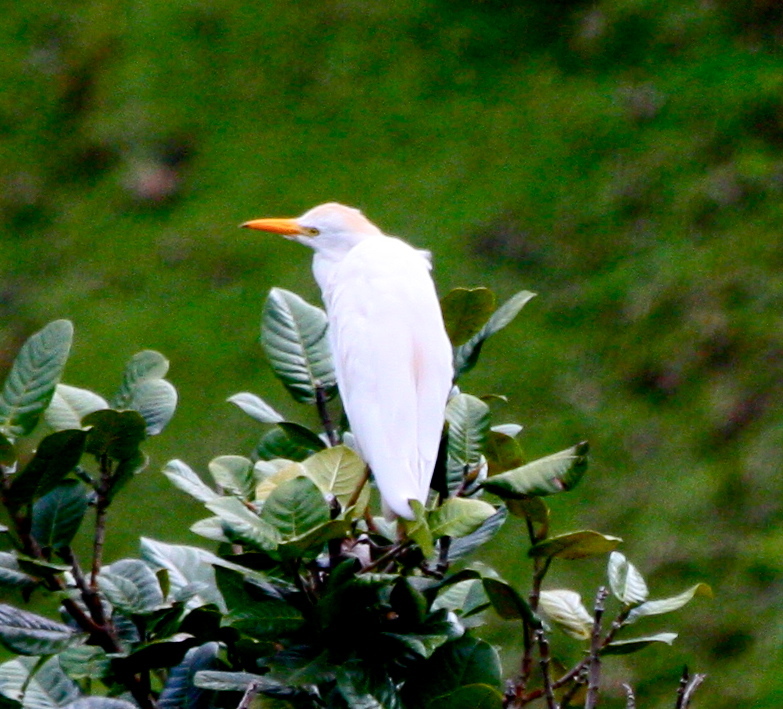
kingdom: Animalia
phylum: Chordata
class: Aves
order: Pelecaniformes
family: Ardeidae
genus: Bubulcus
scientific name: Bubulcus ibis
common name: Cattle egret
